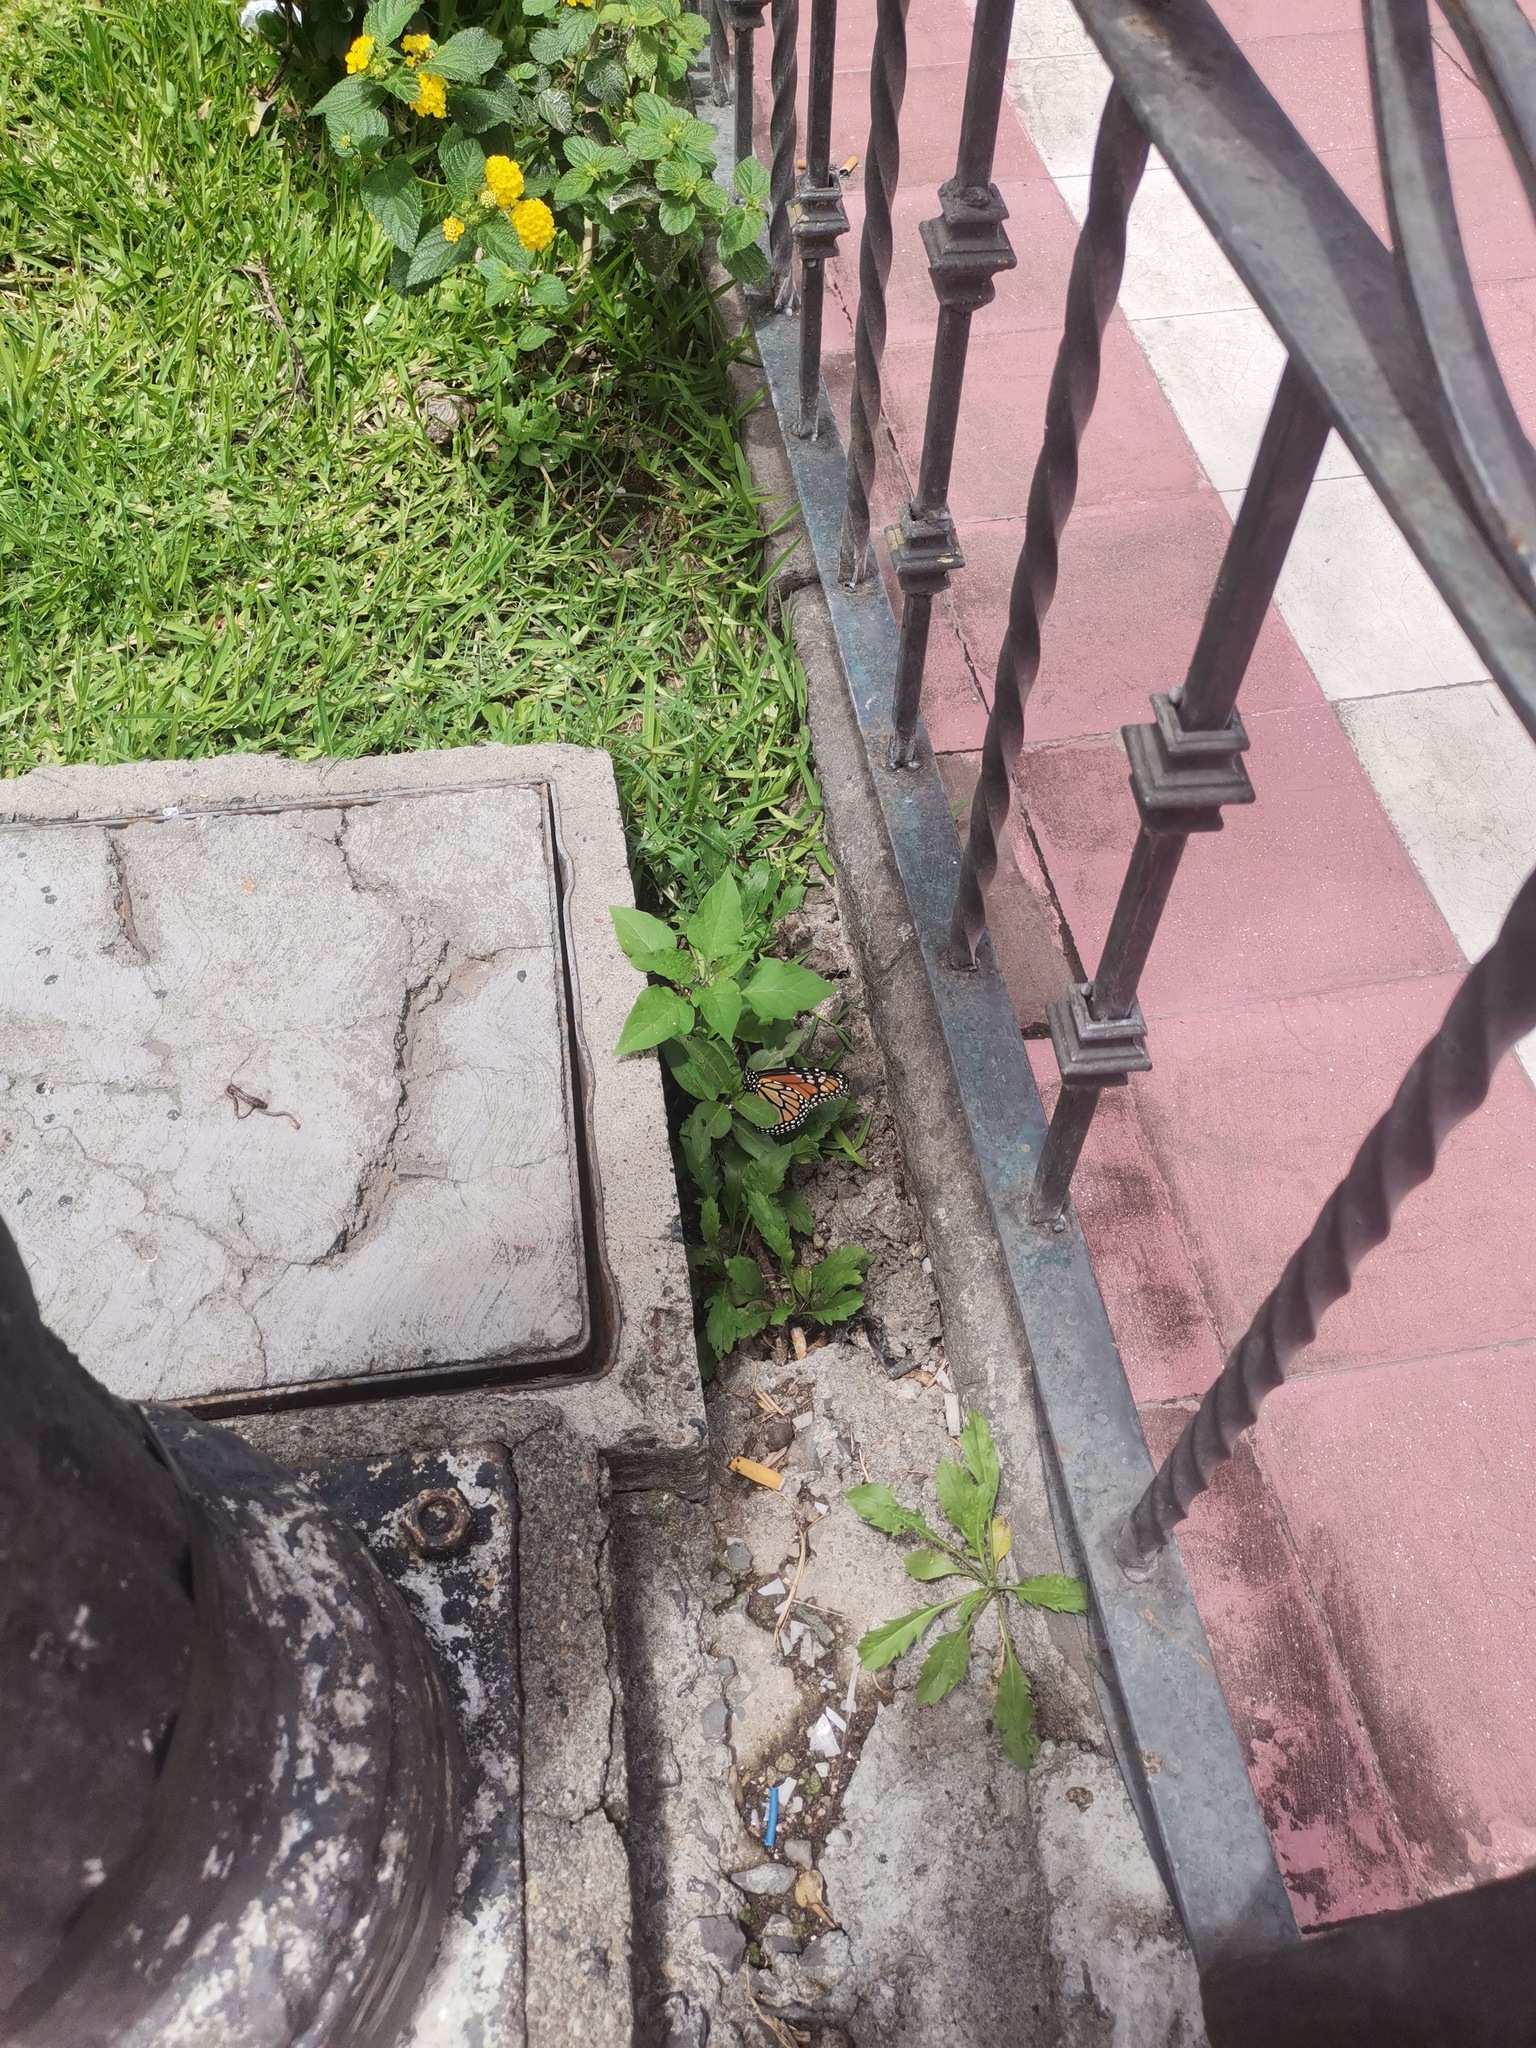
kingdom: Animalia
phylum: Arthropoda
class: Insecta
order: Lepidoptera
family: Nymphalidae
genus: Danaus
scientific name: Danaus plexippus
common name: Monarch
